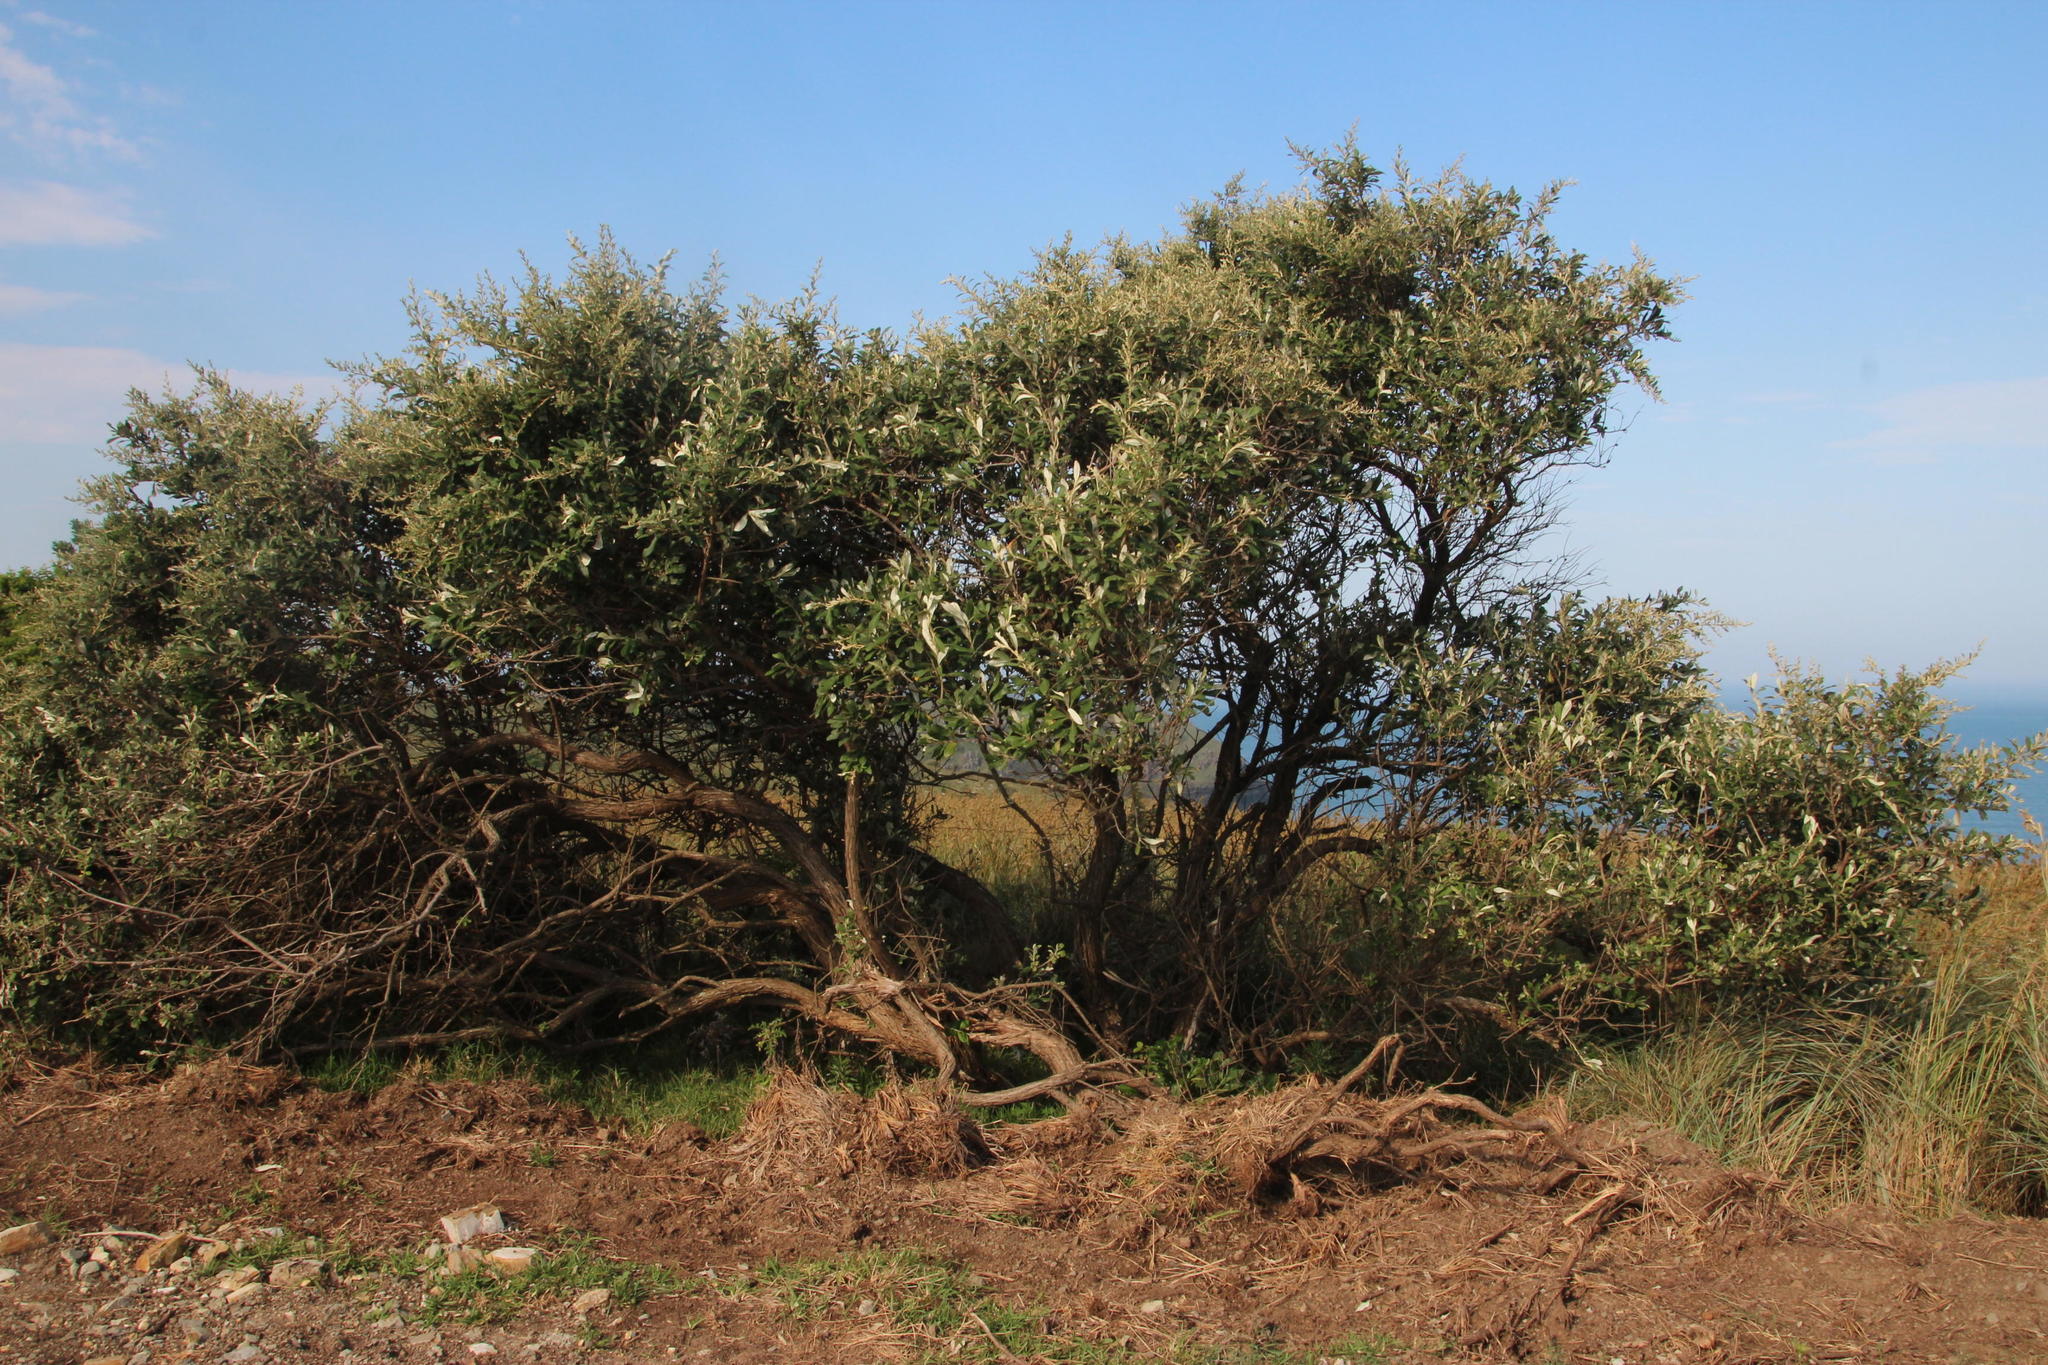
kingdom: Plantae
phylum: Tracheophyta
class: Magnoliopsida
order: Asterales
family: Asteraceae
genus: Tarchonanthus
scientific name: Tarchonanthus littoralis
